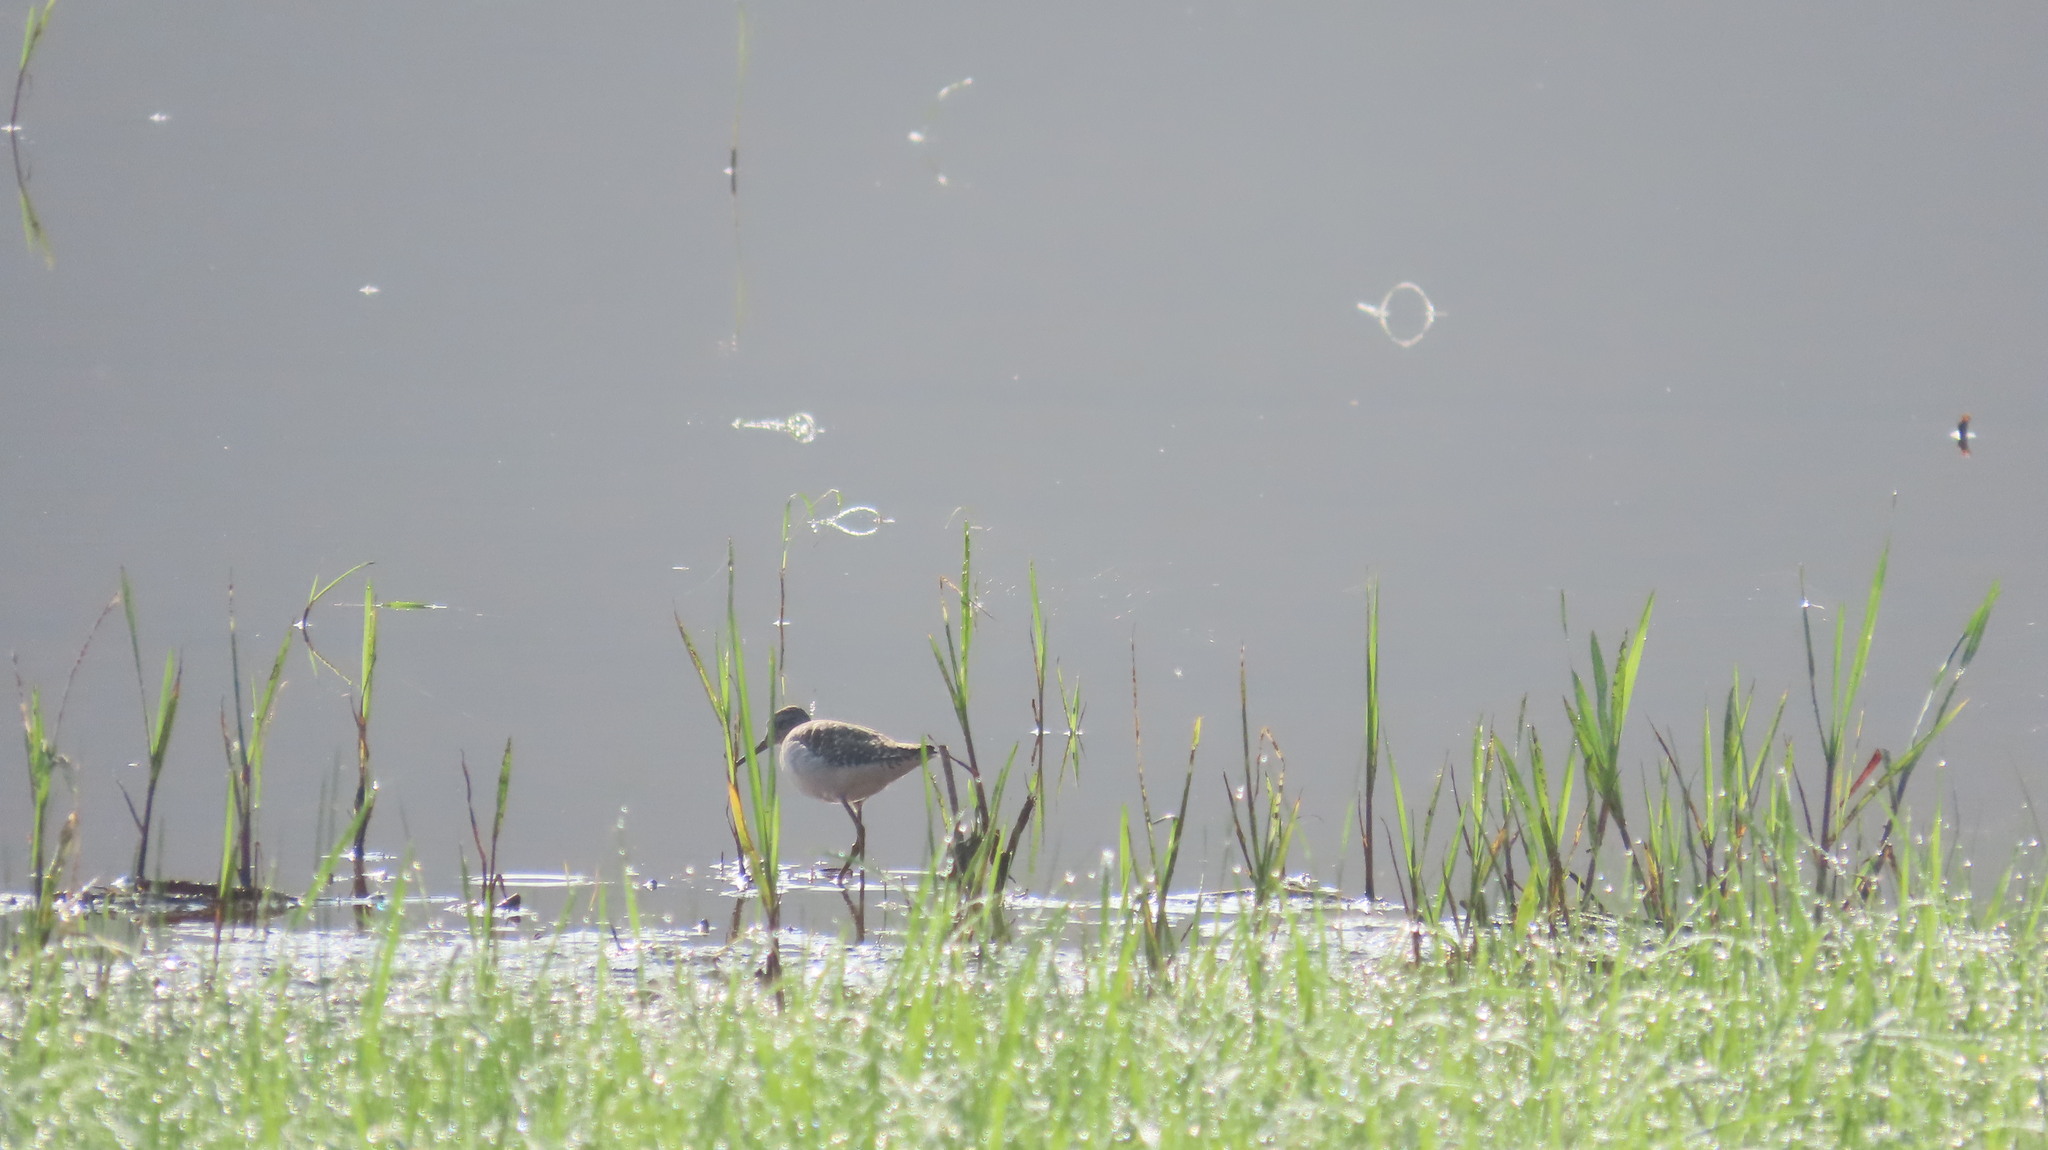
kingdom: Animalia
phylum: Chordata
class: Aves
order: Charadriiformes
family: Scolopacidae
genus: Tringa
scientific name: Tringa glareola
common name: Wood sandpiper
